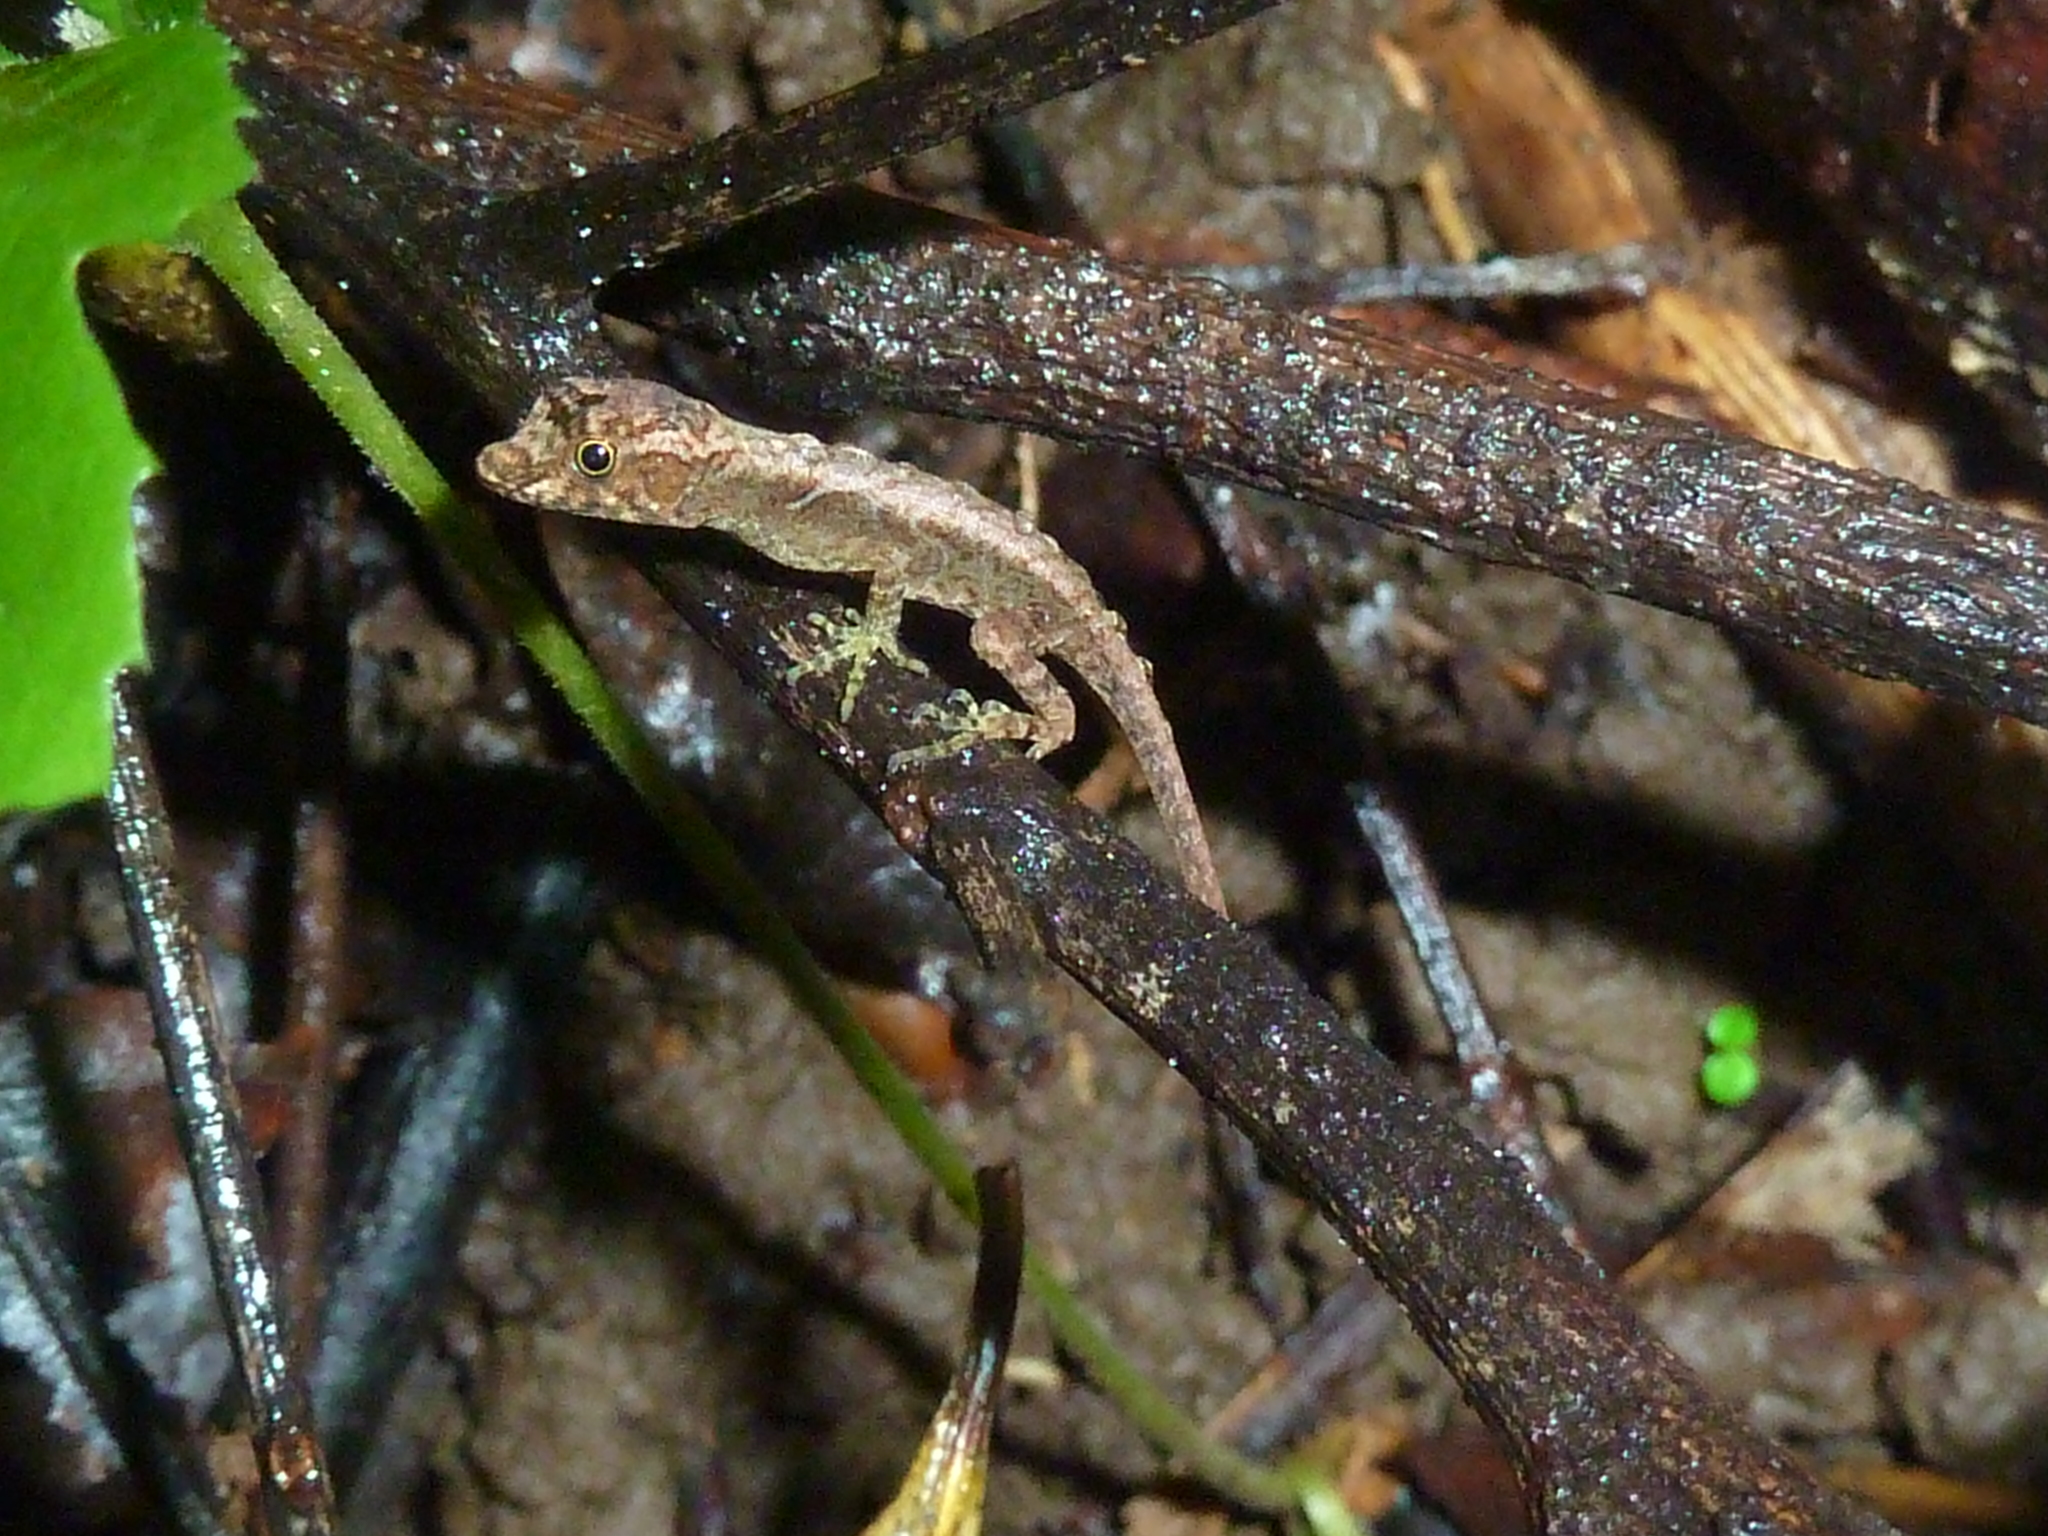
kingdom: Animalia
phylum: Chordata
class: Squamata
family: Dactyloidae
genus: Anolis
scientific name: Anolis humilis
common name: Humble anole
